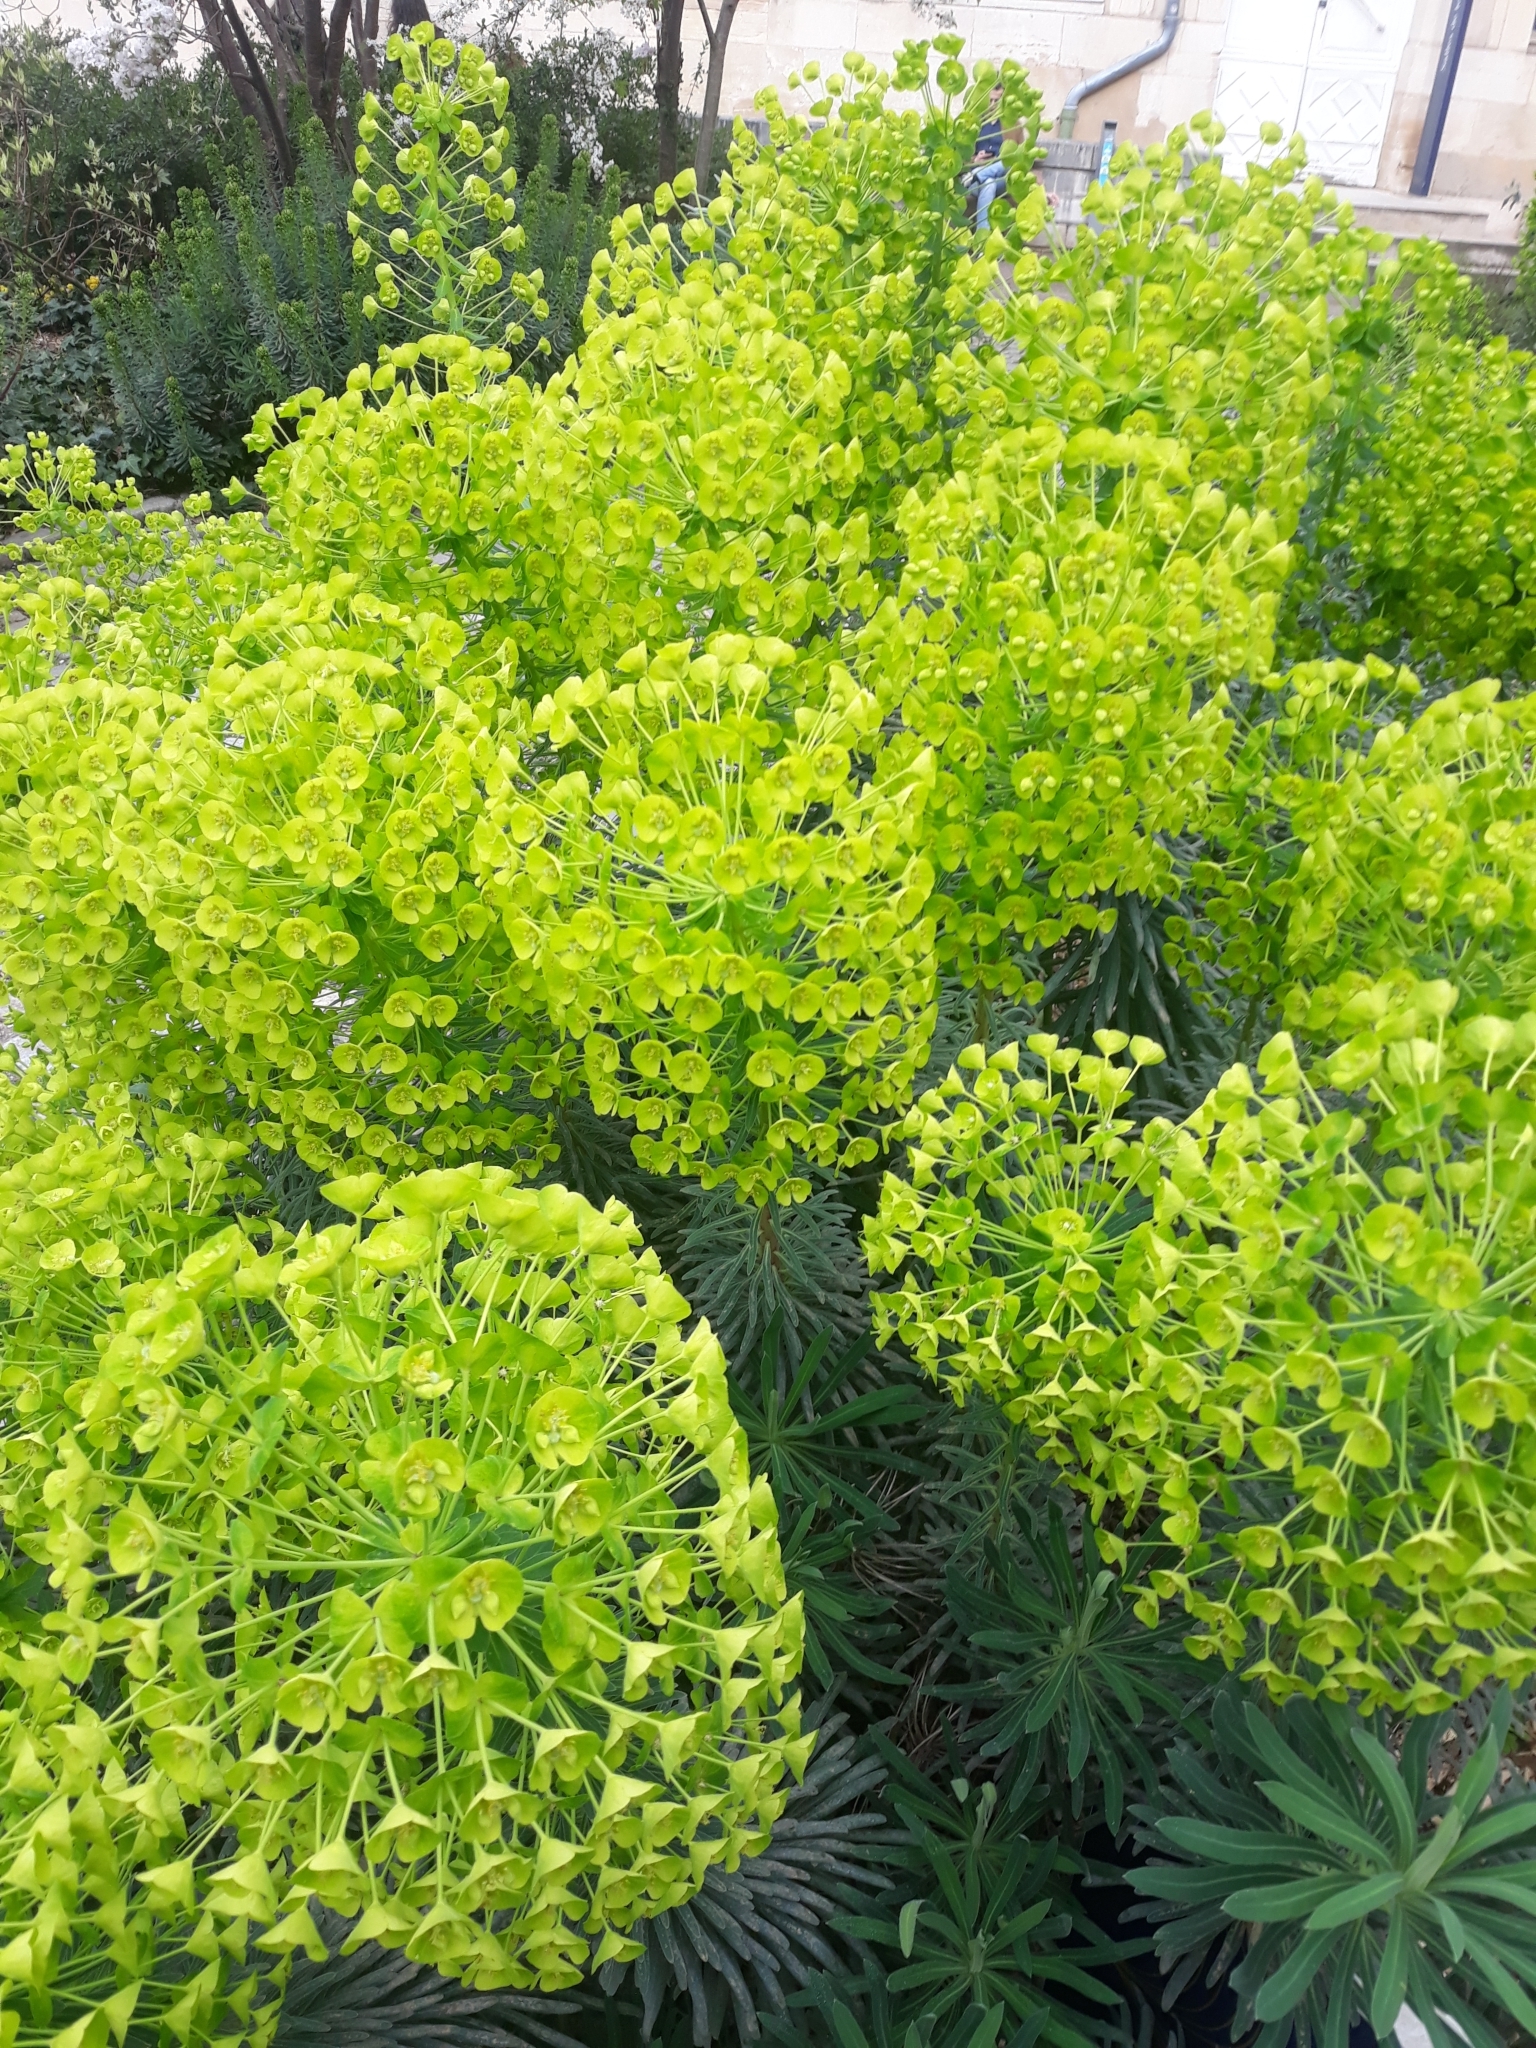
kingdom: Plantae
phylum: Tracheophyta
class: Magnoliopsida
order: Malpighiales
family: Euphorbiaceae
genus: Euphorbia
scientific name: Euphorbia characias
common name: Mediterranean spurge
